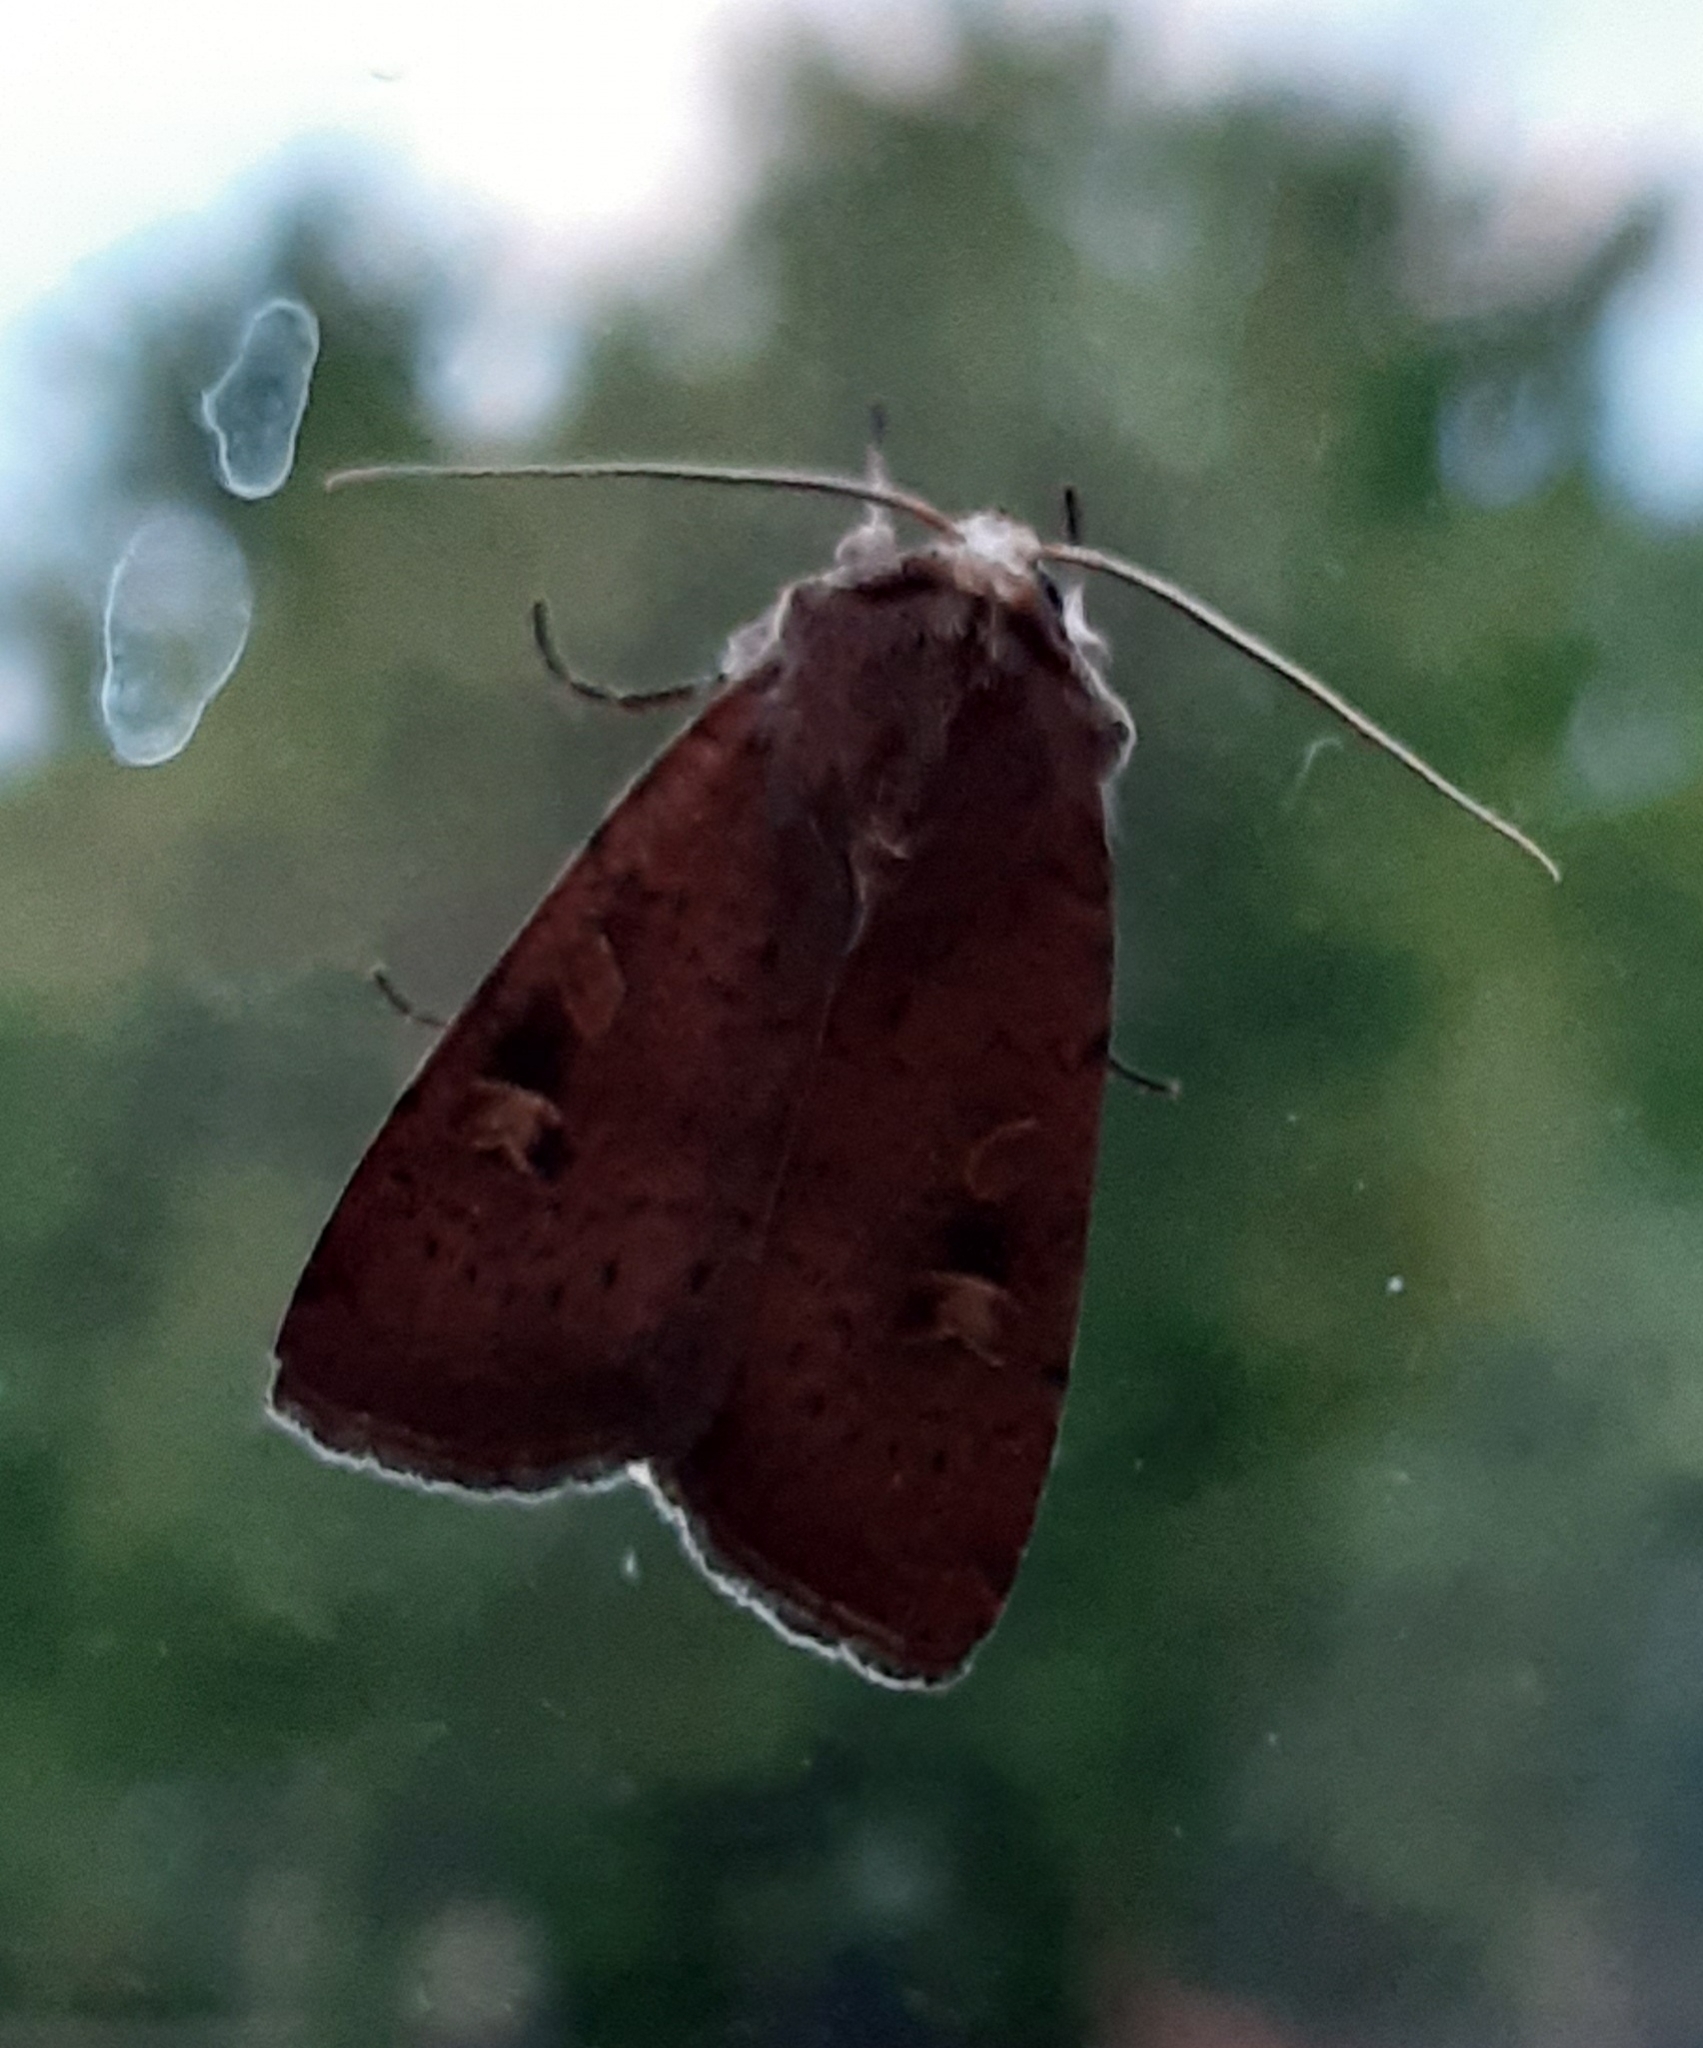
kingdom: Animalia
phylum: Arthropoda
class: Insecta
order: Lepidoptera
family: Noctuidae
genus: Xestia
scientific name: Xestia xanthographa
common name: Square-spot rustic
